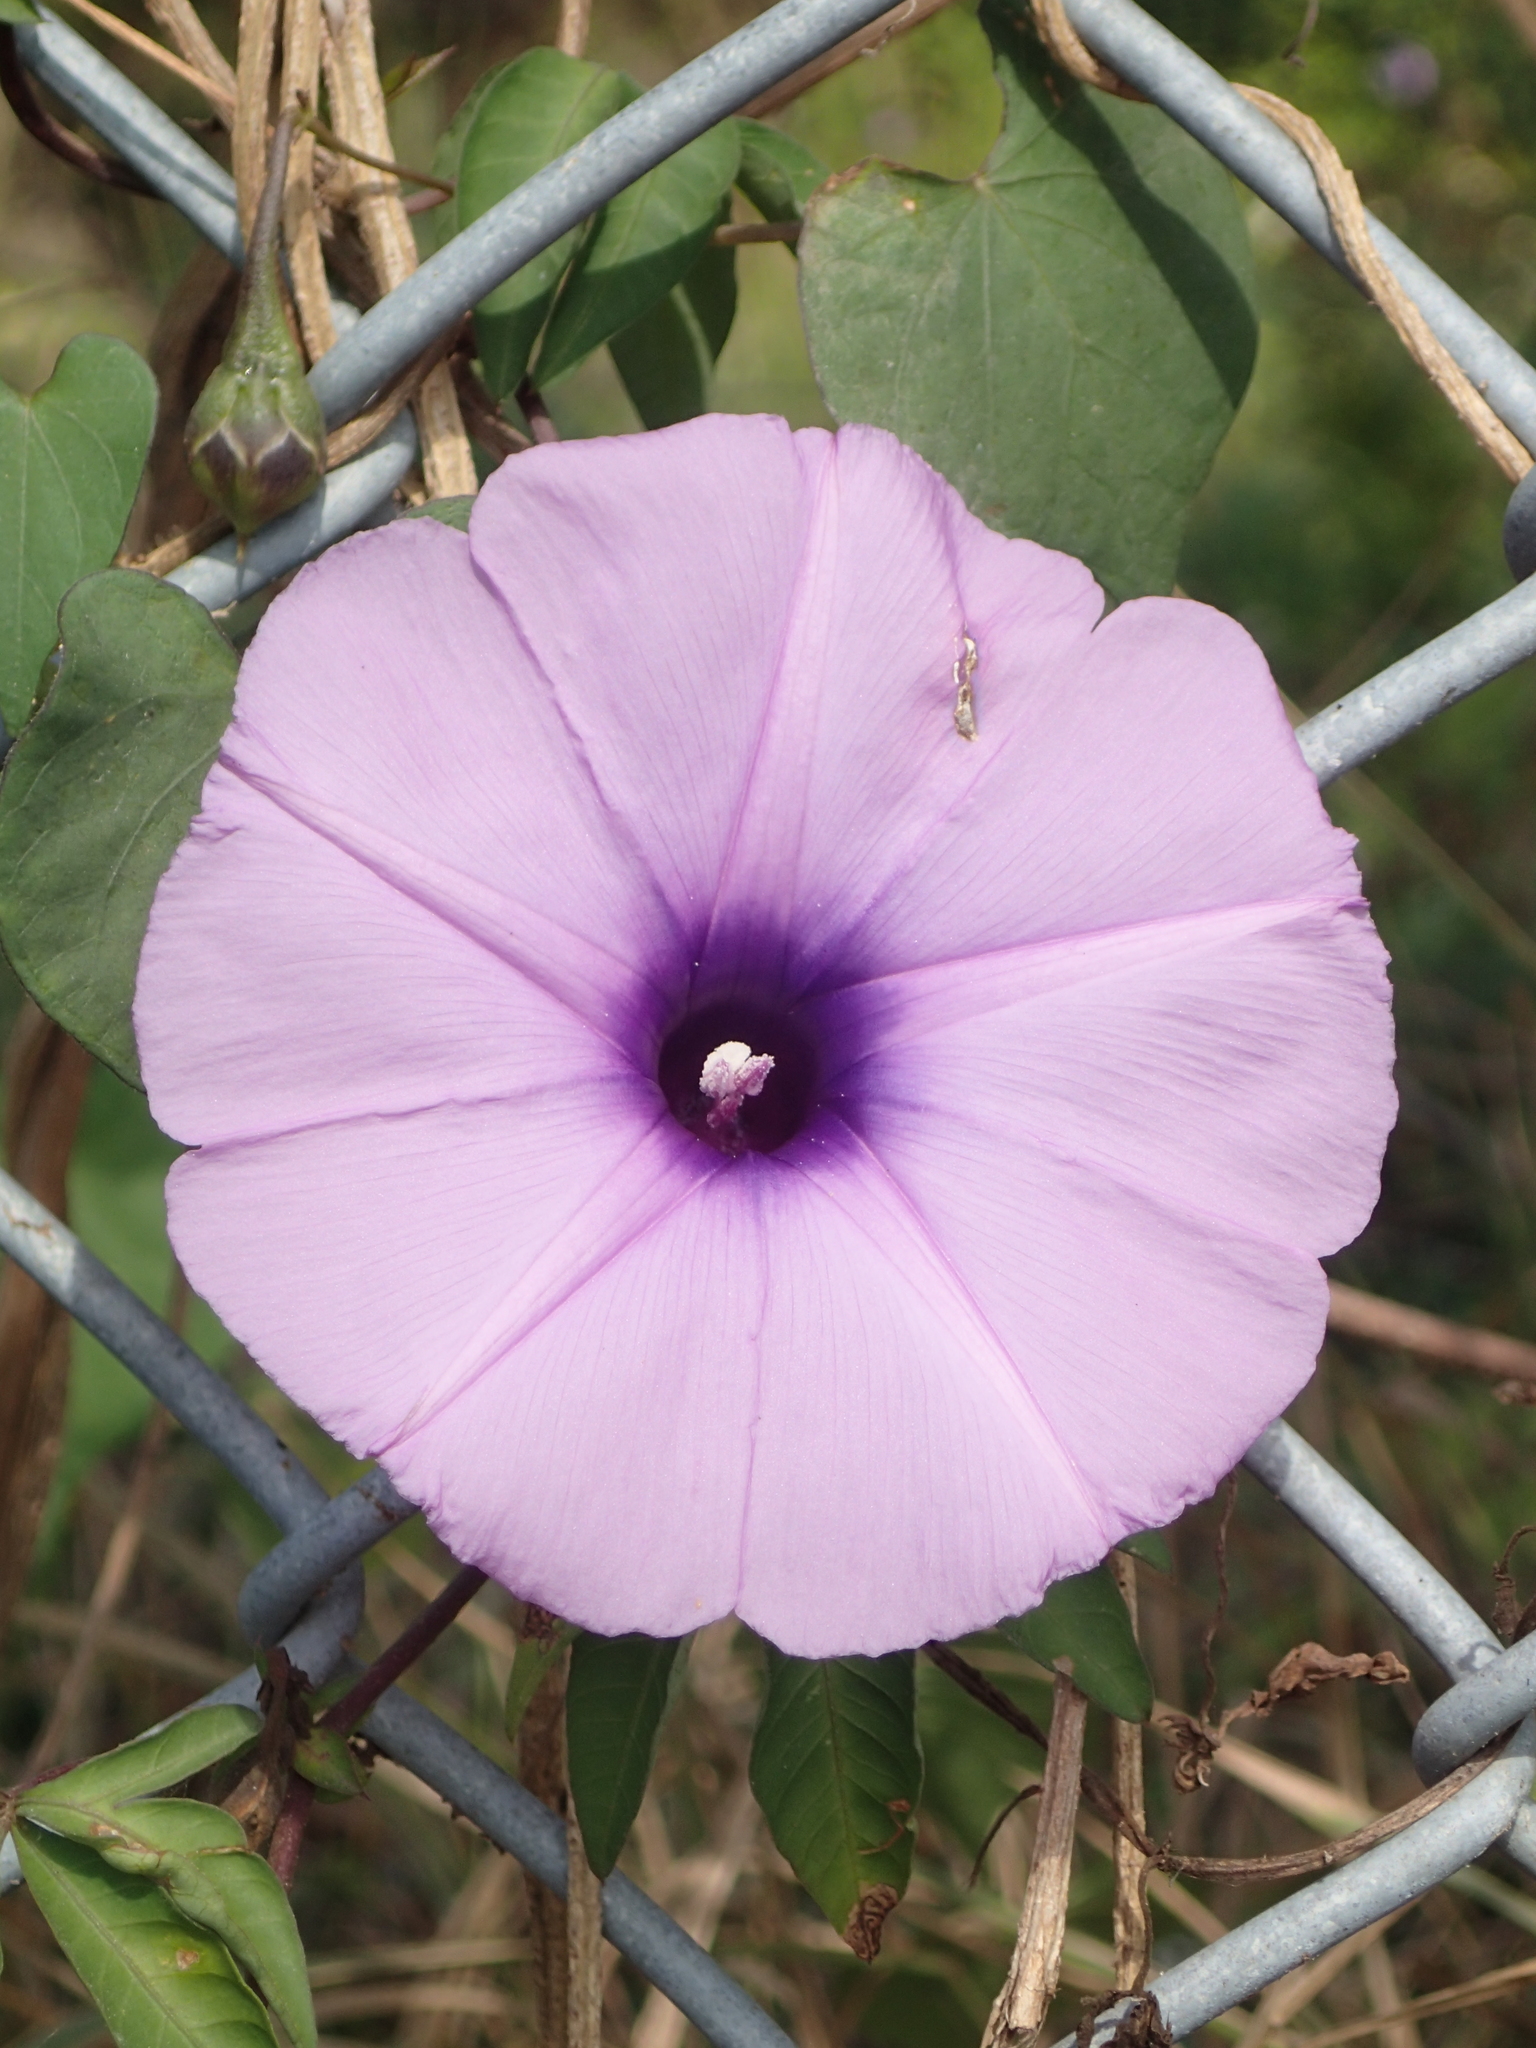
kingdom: Plantae
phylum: Tracheophyta
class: Magnoliopsida
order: Solanales
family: Convolvulaceae
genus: Ipomoea
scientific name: Ipomoea cairica
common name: Mile a minute vine
